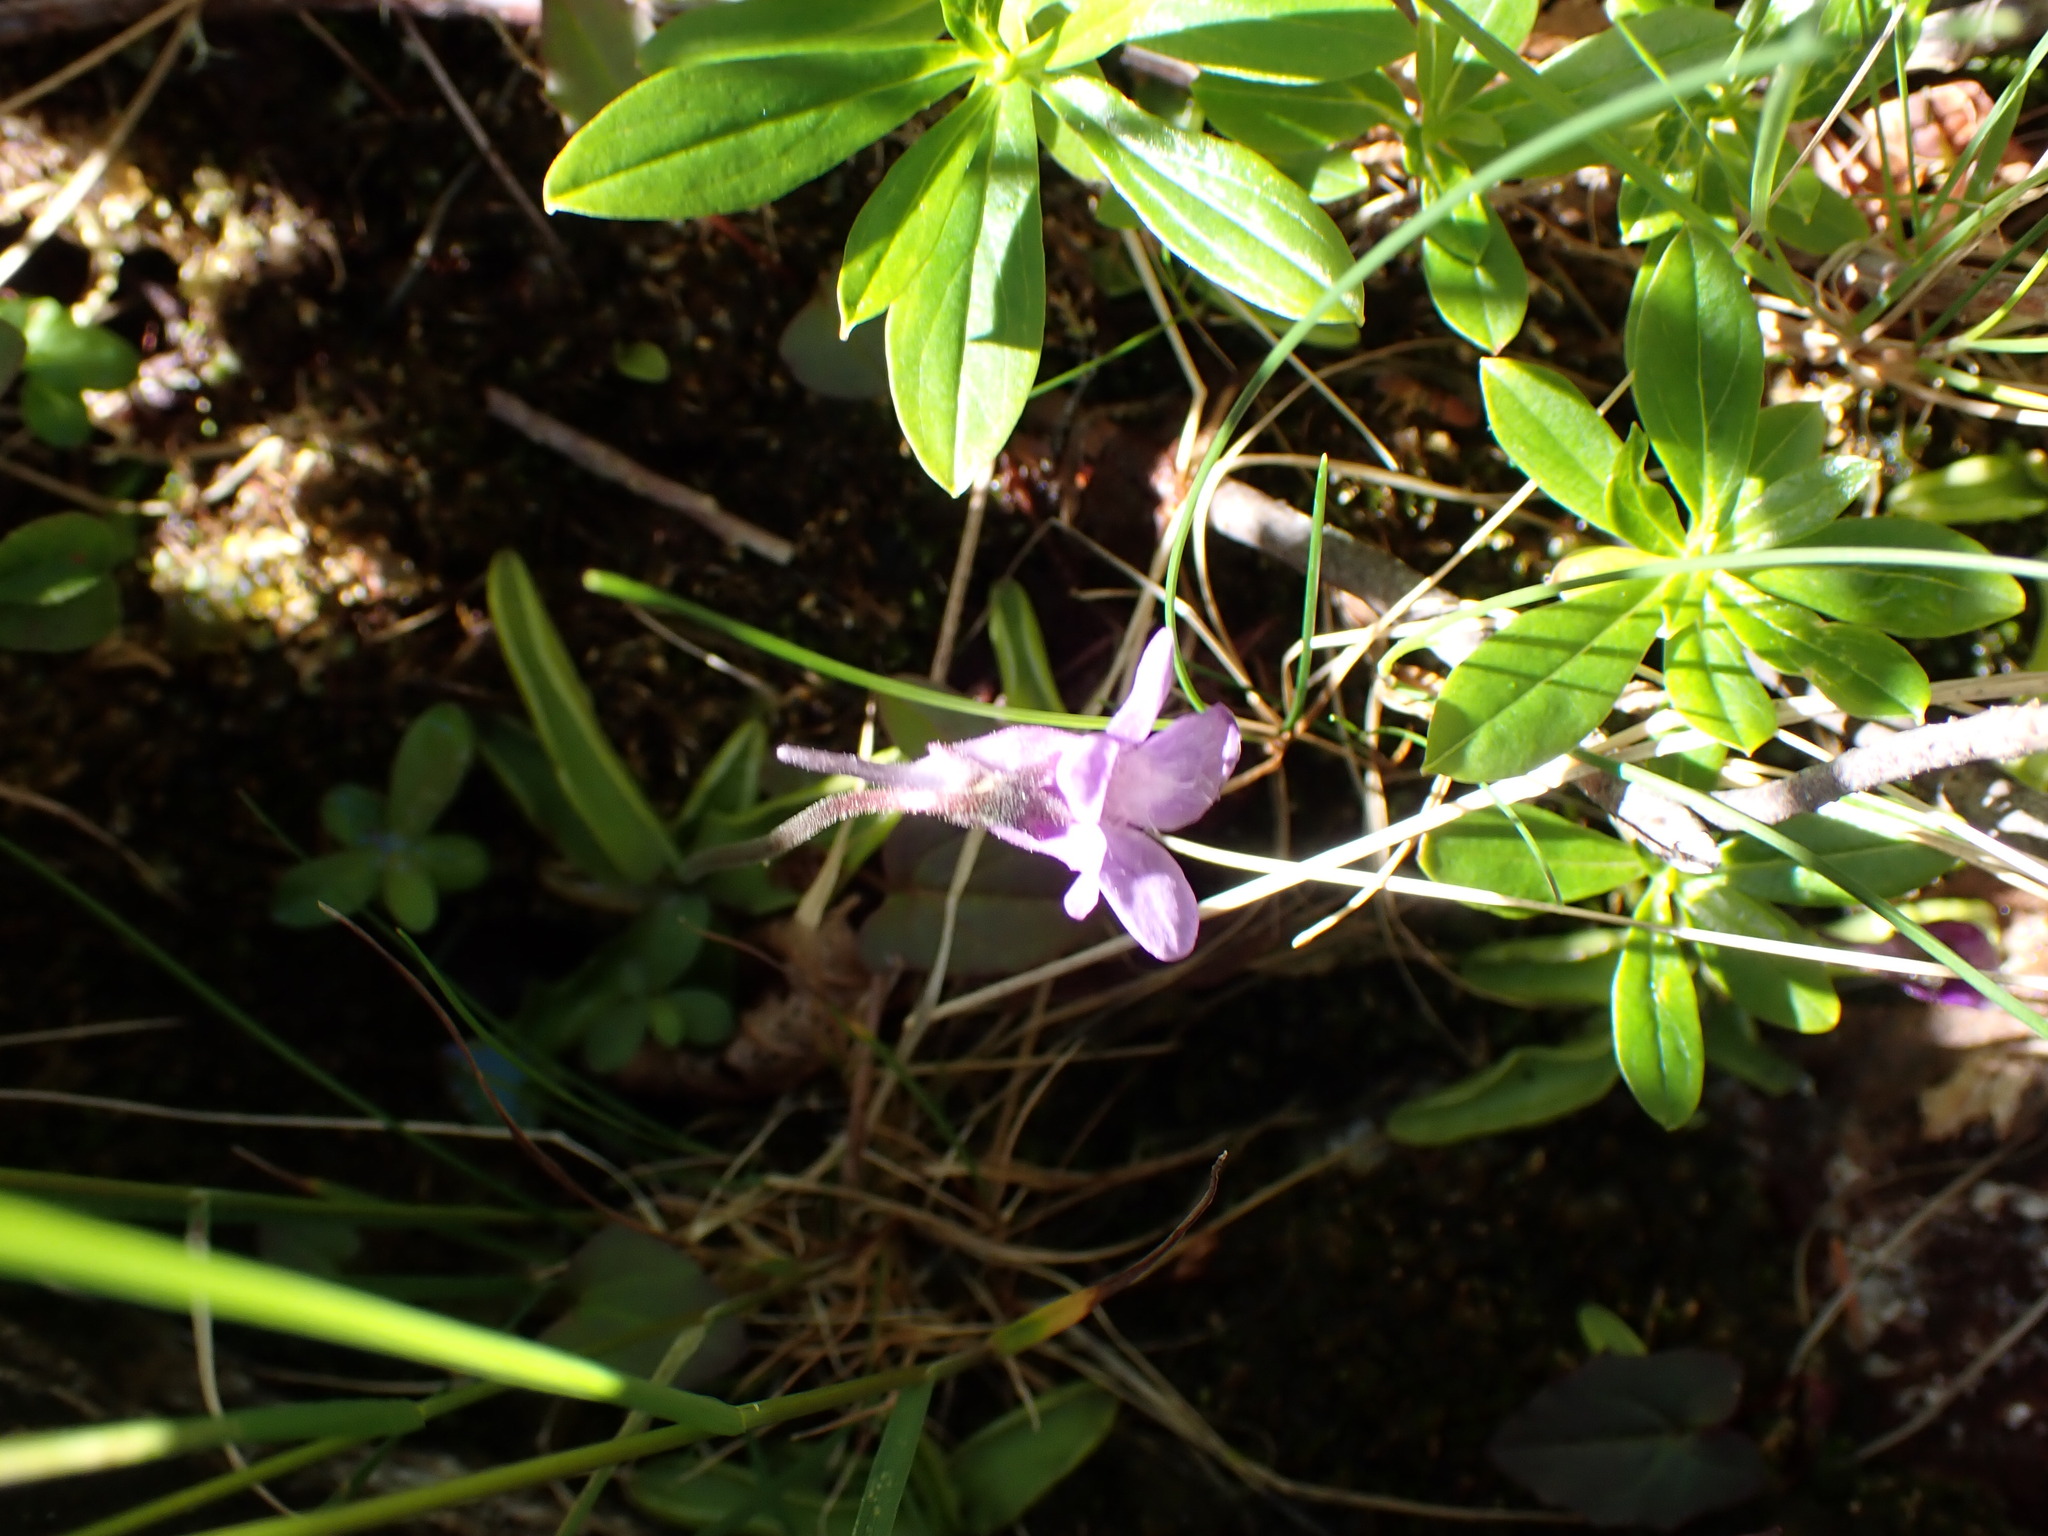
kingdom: Plantae
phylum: Tracheophyta
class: Magnoliopsida
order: Lamiales
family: Lentibulariaceae
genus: Pinguicula
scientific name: Pinguicula vulgaris
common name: Common butterwort
